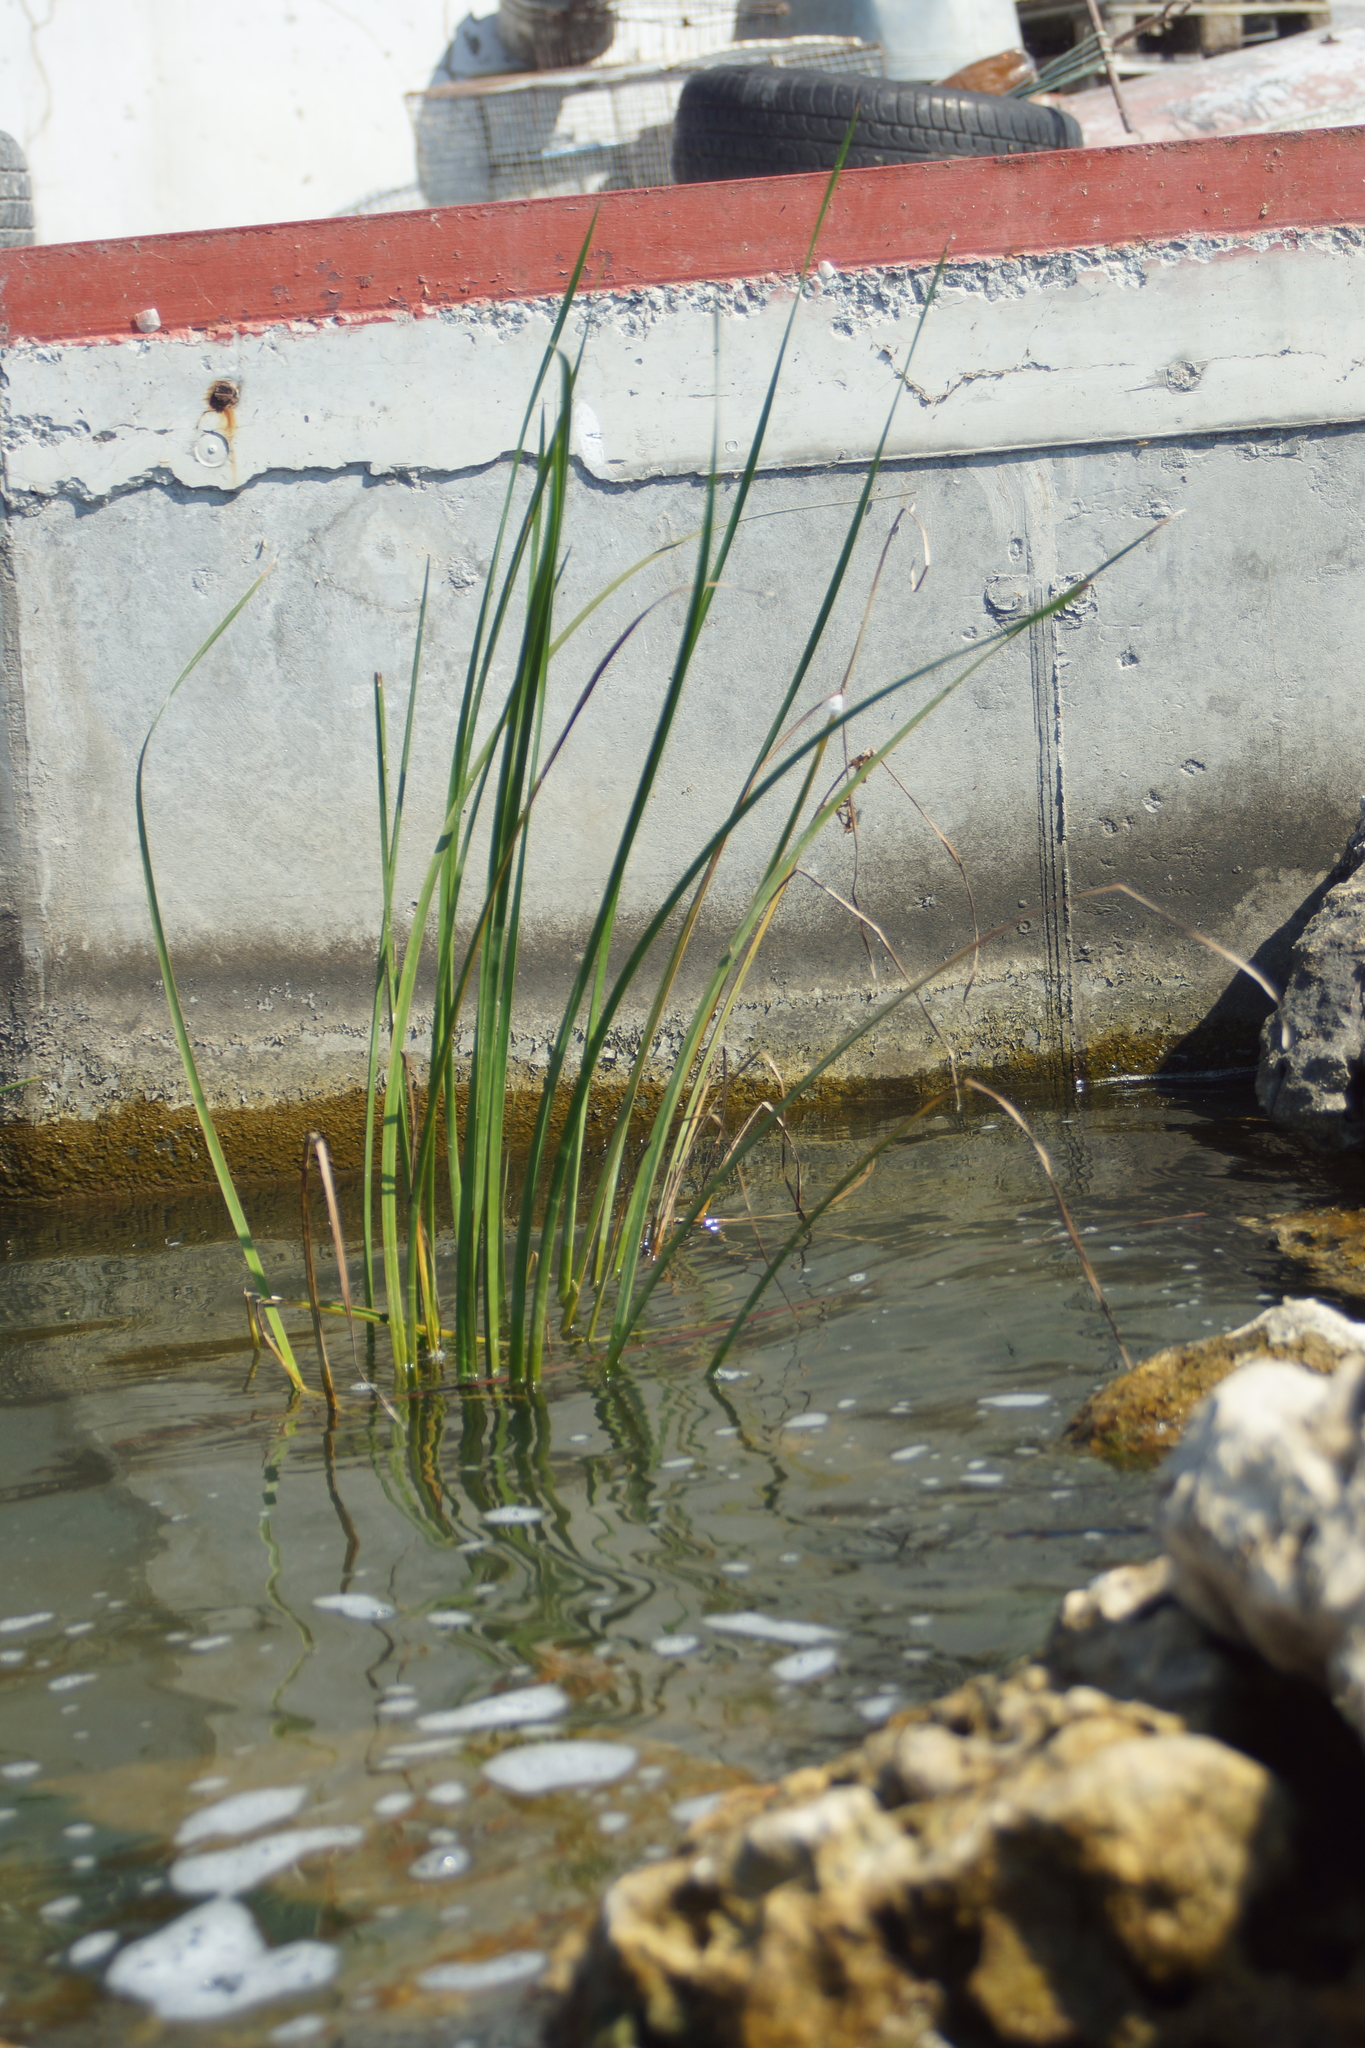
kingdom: Plantae
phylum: Tracheophyta
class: Liliopsida
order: Poales
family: Typhaceae
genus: Typha
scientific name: Typha angustifolia
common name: Lesser bulrush
